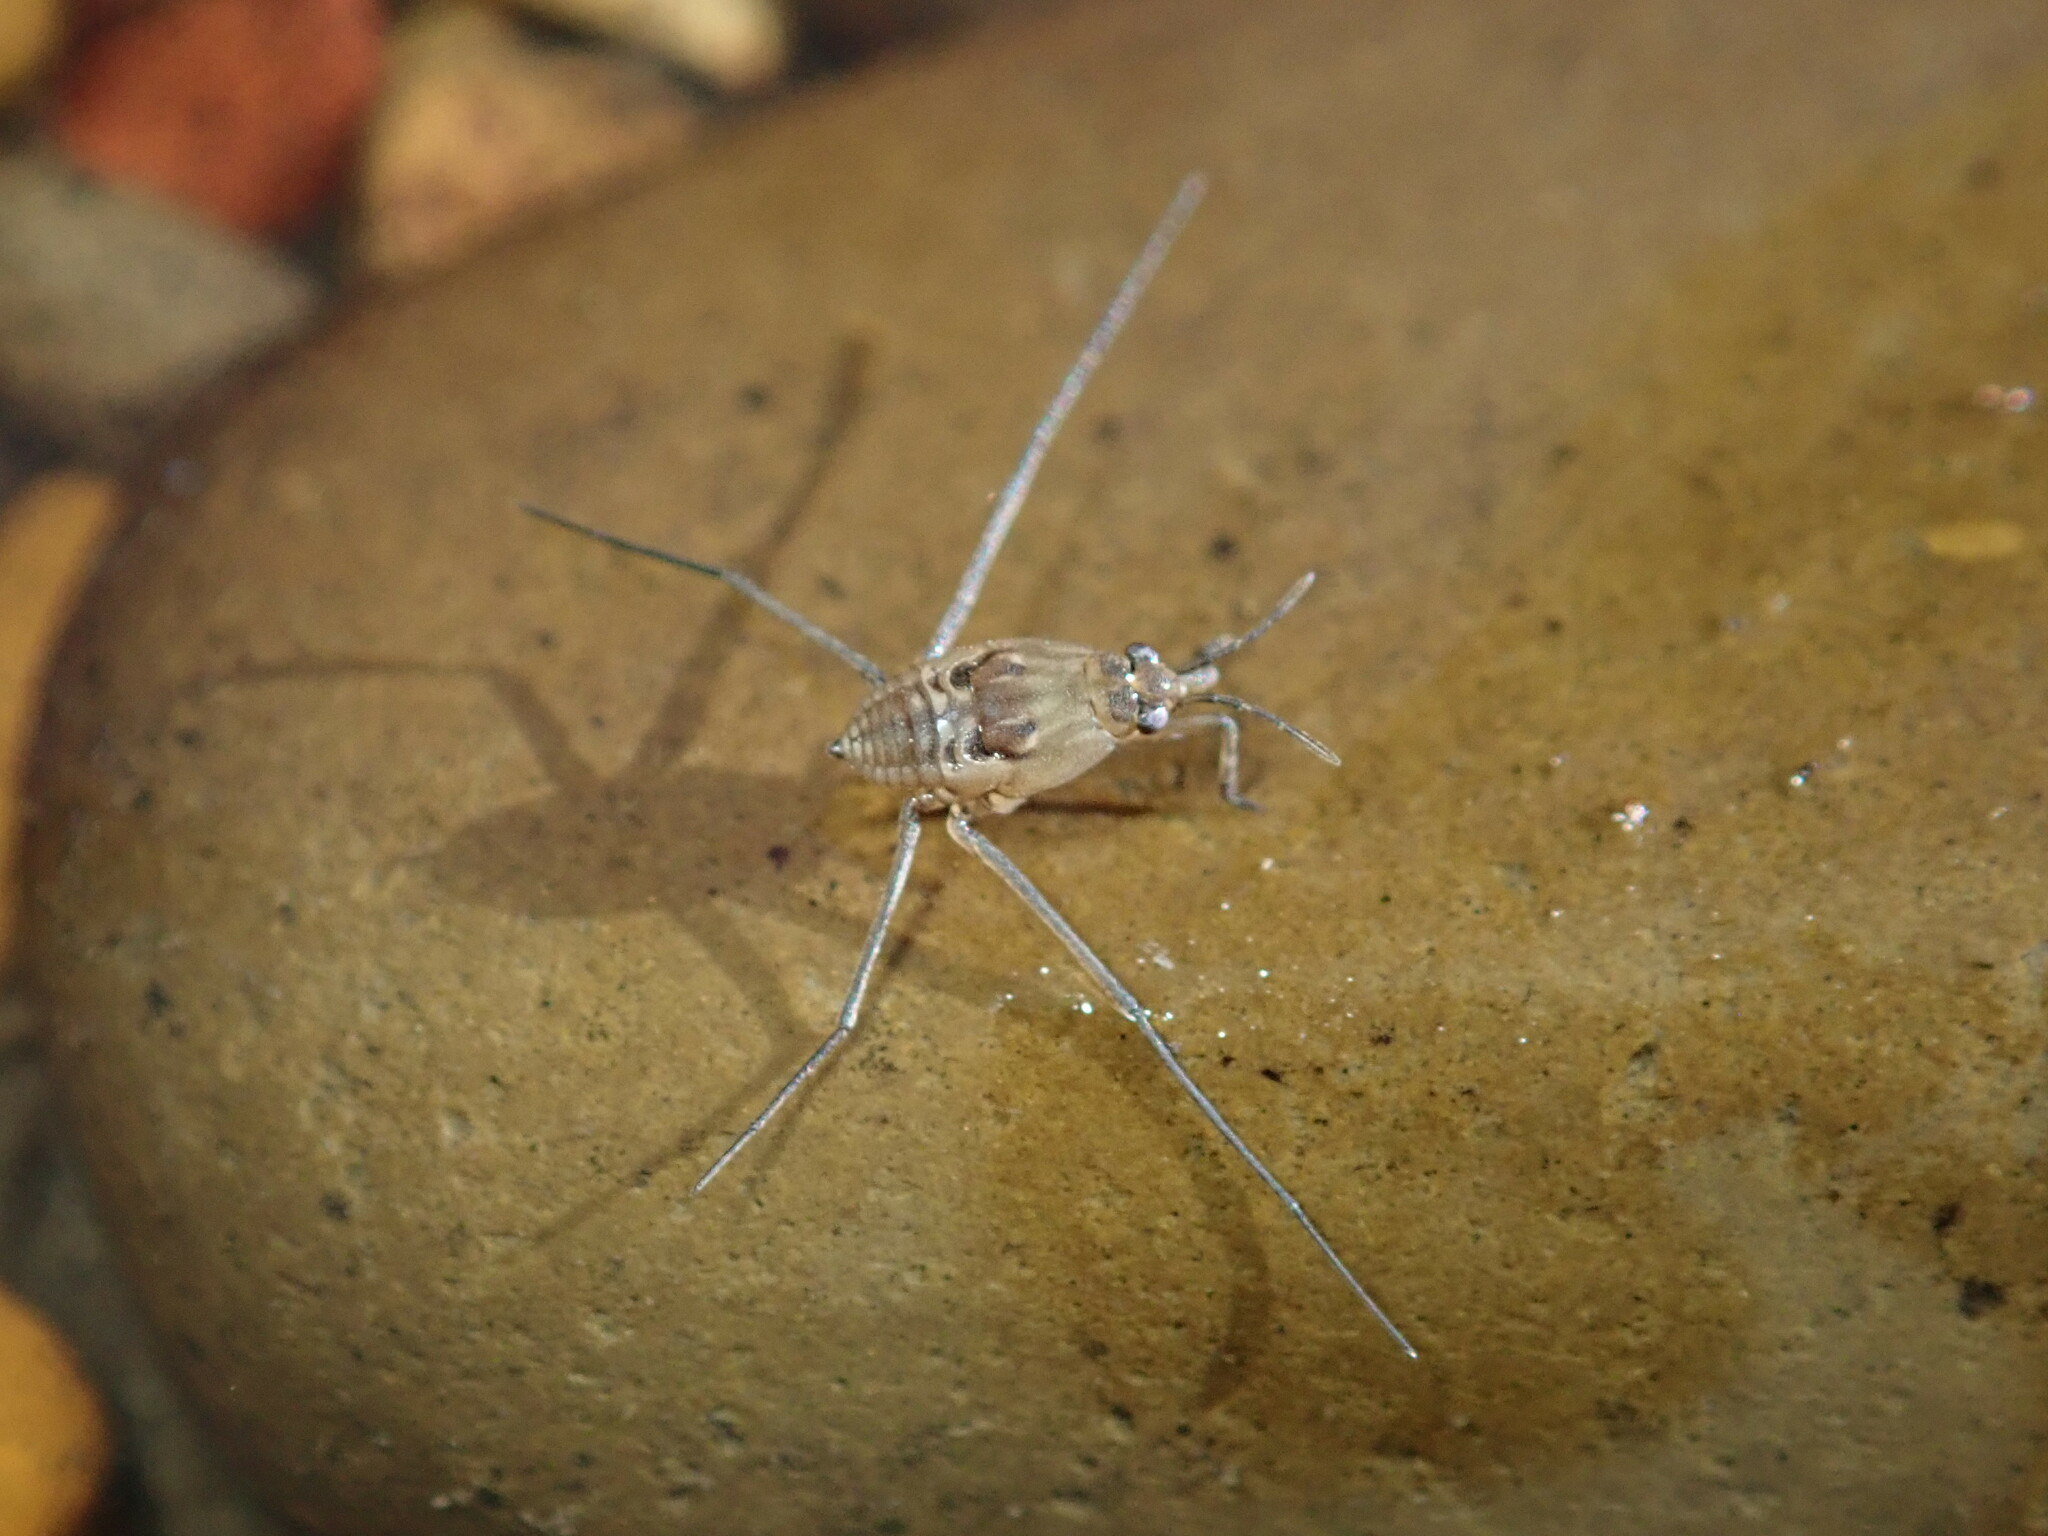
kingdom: Animalia
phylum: Arthropoda
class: Insecta
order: Hemiptera
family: Gerridae
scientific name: Gerridae
